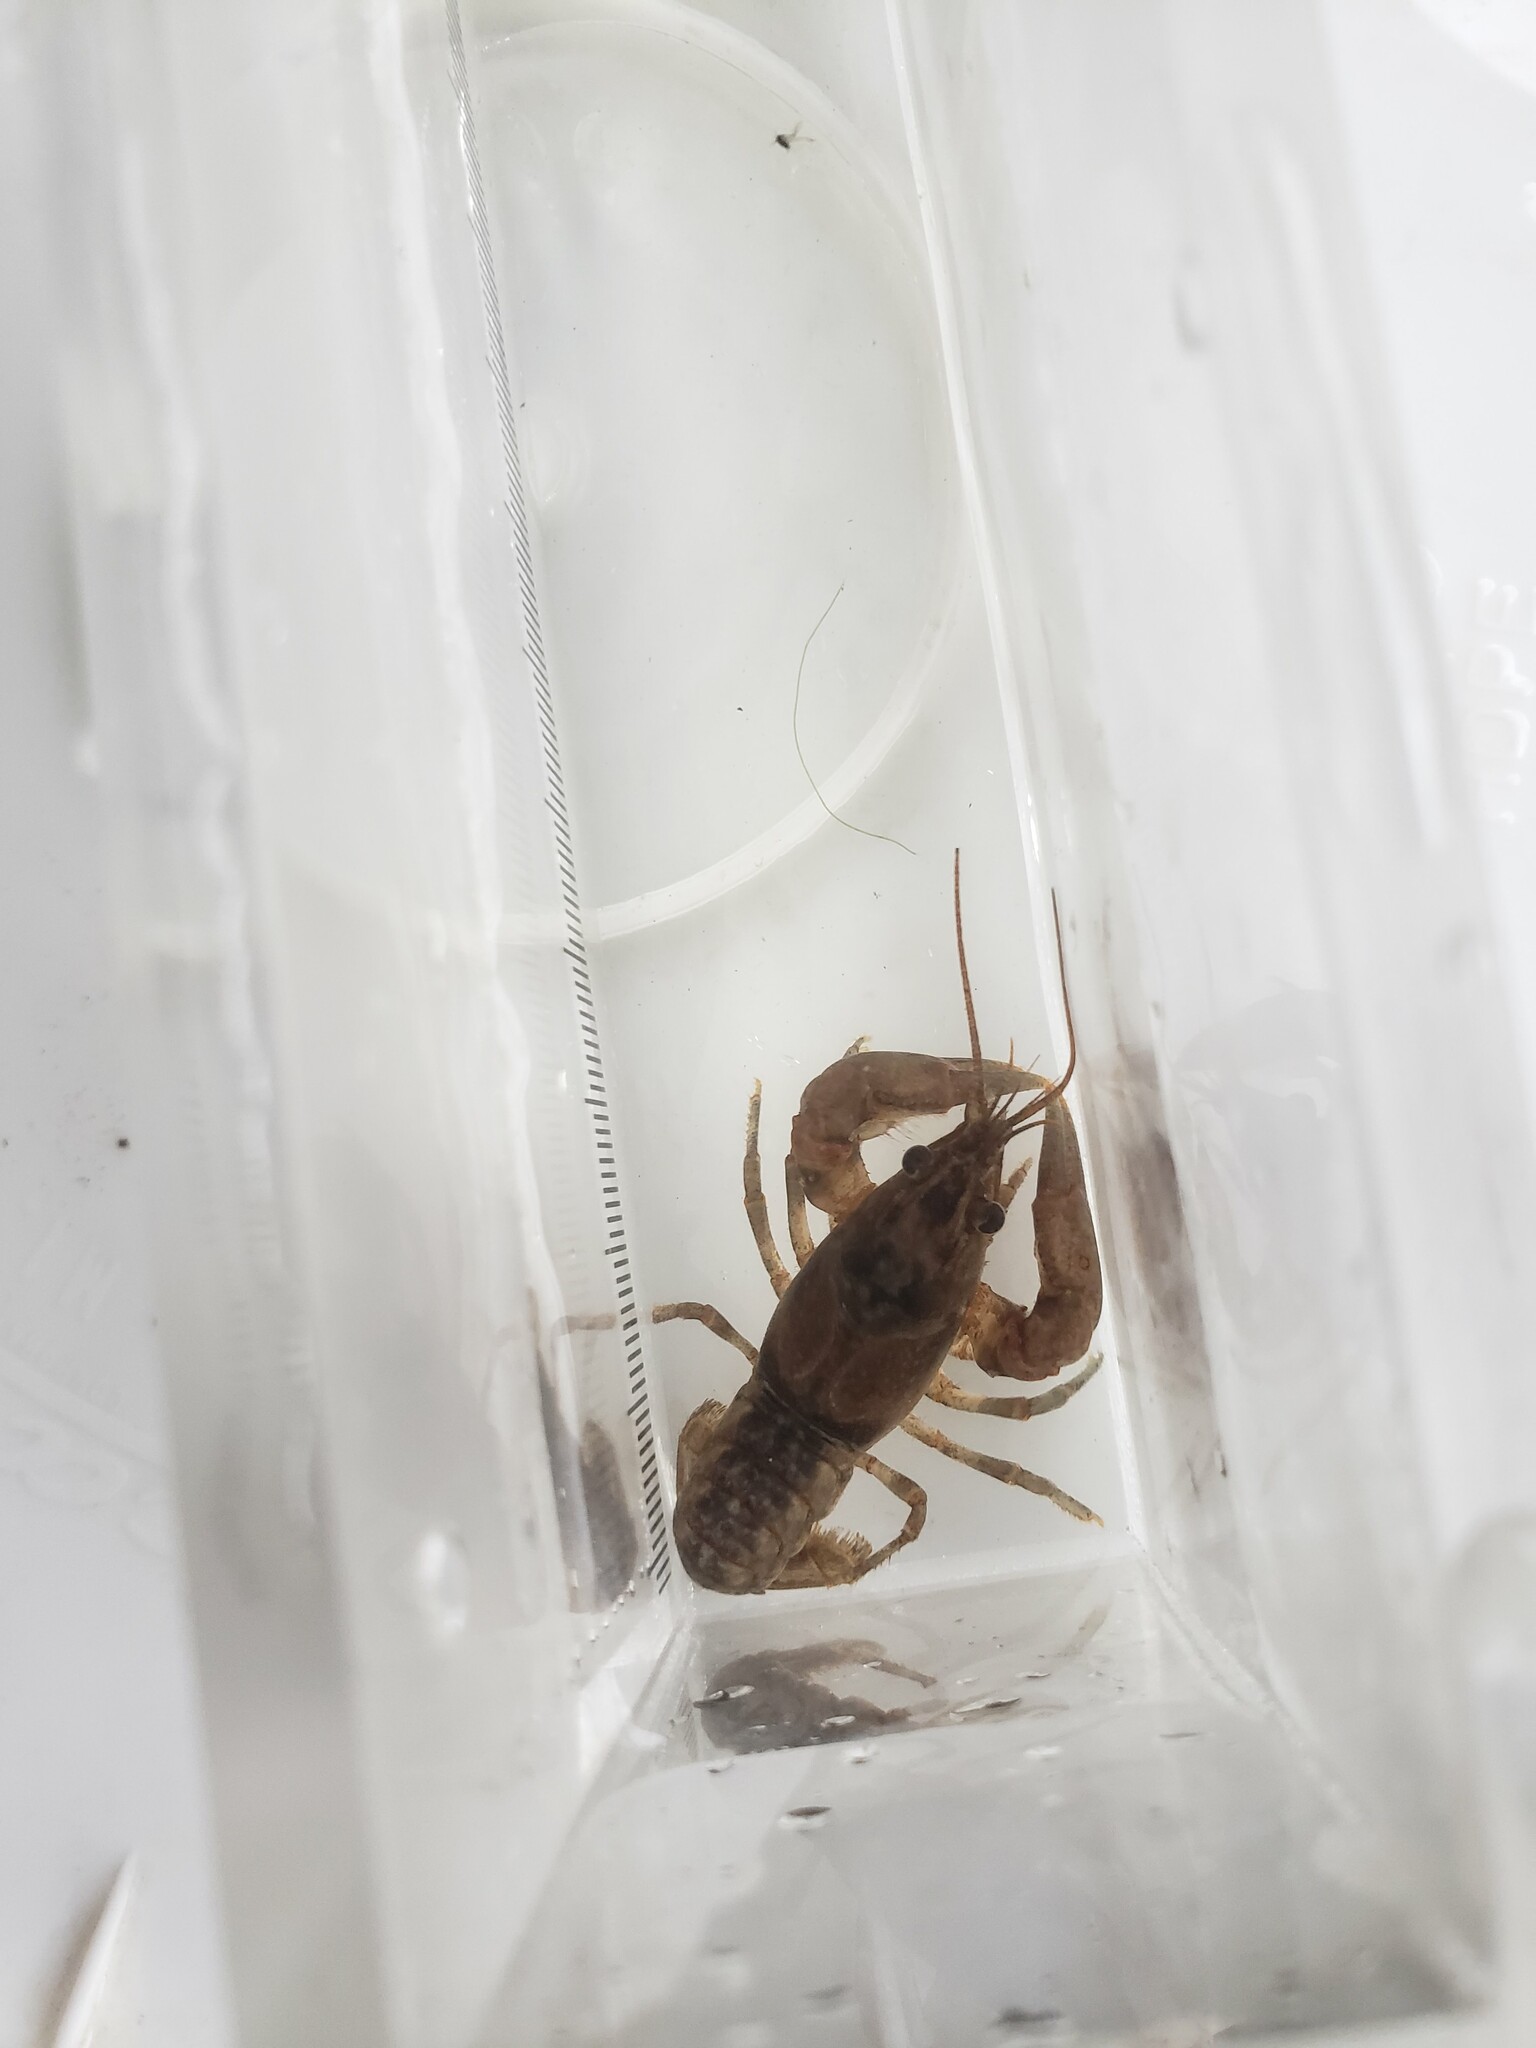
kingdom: Animalia
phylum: Arthropoda
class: Malacostraca
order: Decapoda
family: Cambaridae
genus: Faxonius
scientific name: Faxonius propinquus
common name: Northern clearwater crayfish
